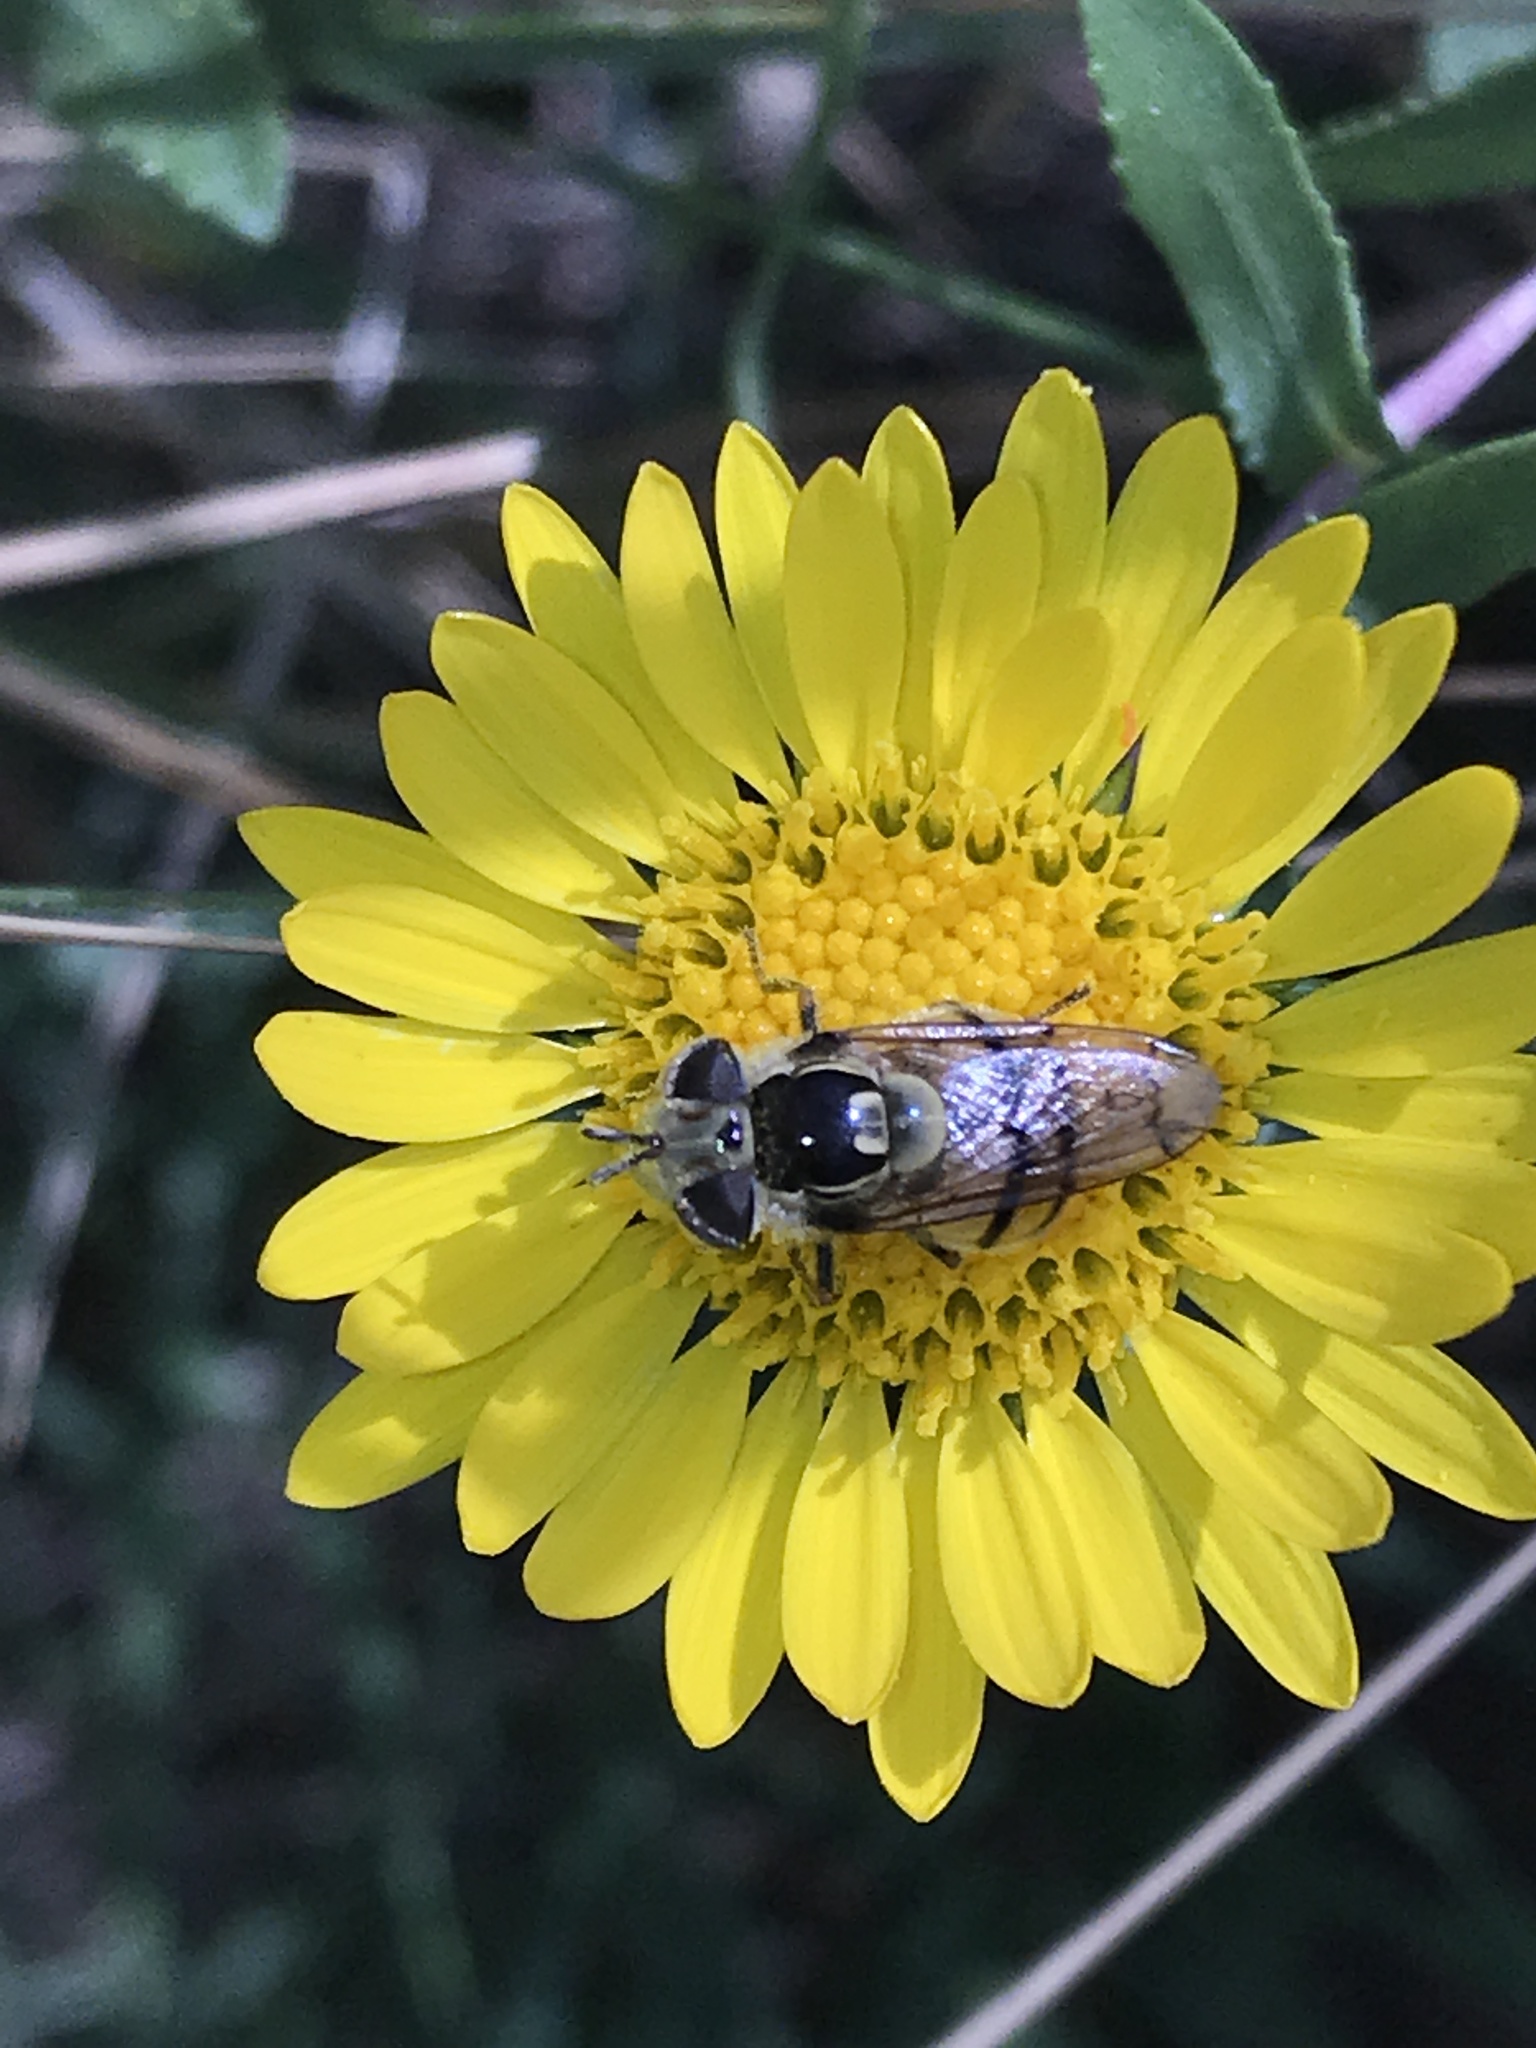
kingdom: Animalia
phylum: Arthropoda
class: Insecta
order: Diptera
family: Syrphidae
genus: Copestylum
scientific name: Copestylum satur
